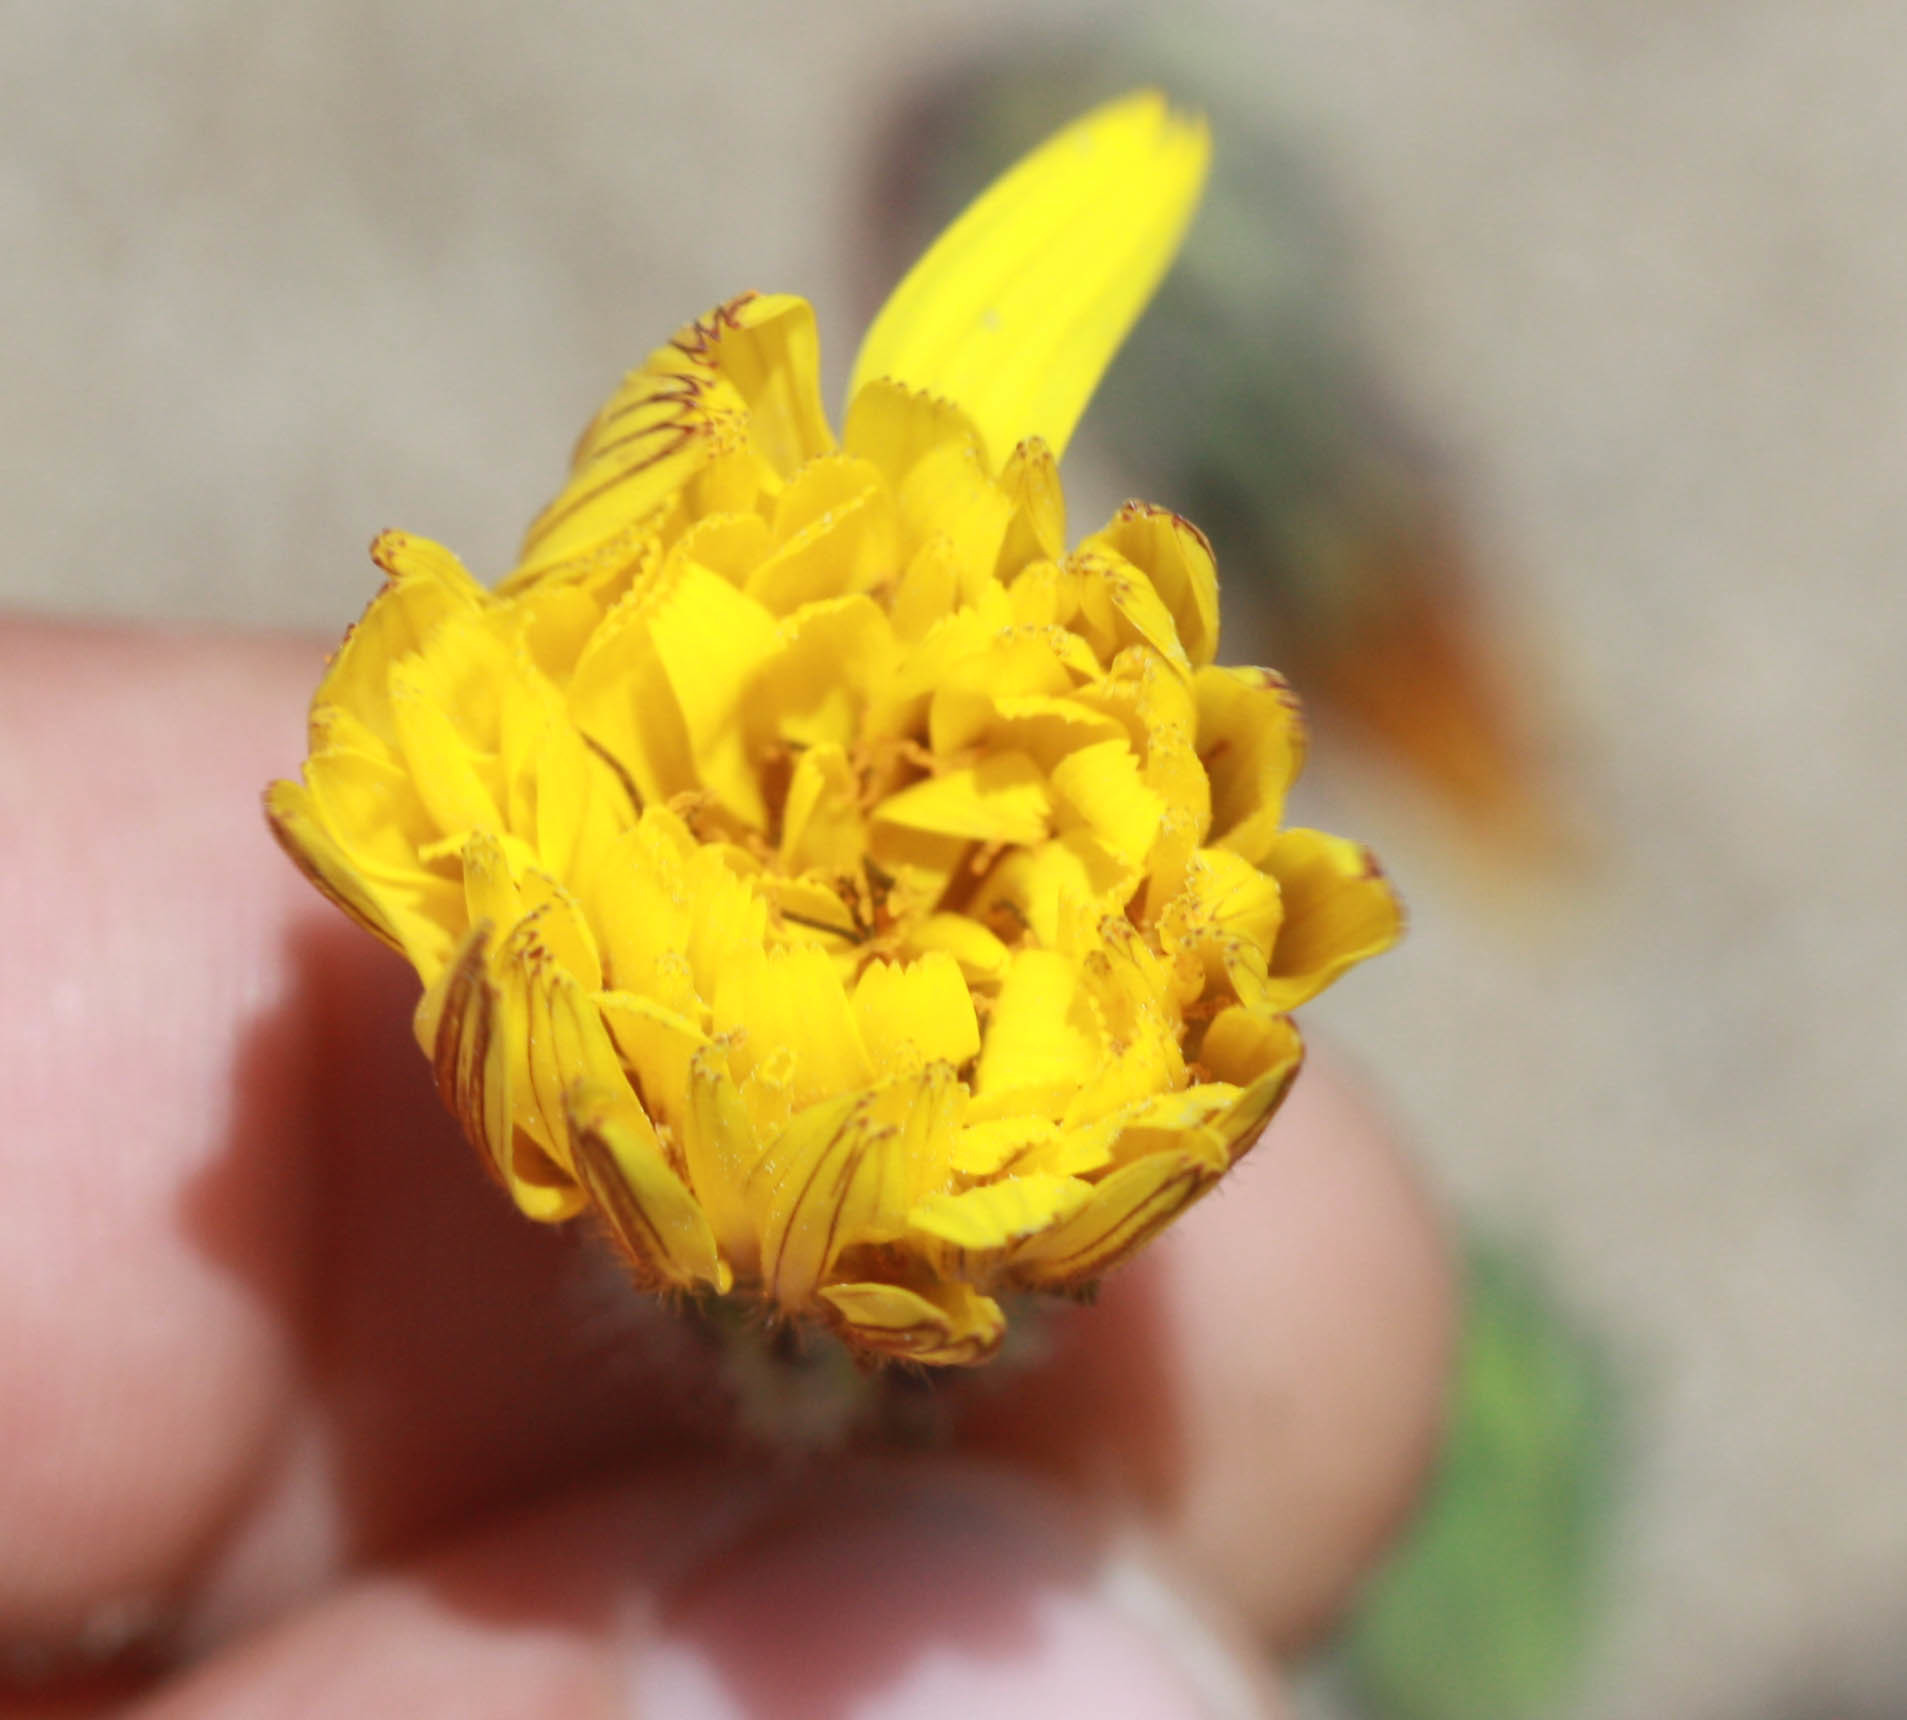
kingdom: Plantae
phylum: Tracheophyta
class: Magnoliopsida
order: Asterales
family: Asteraceae
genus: Agoseris
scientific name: Agoseris apargioides
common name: Point reyes agoseris
